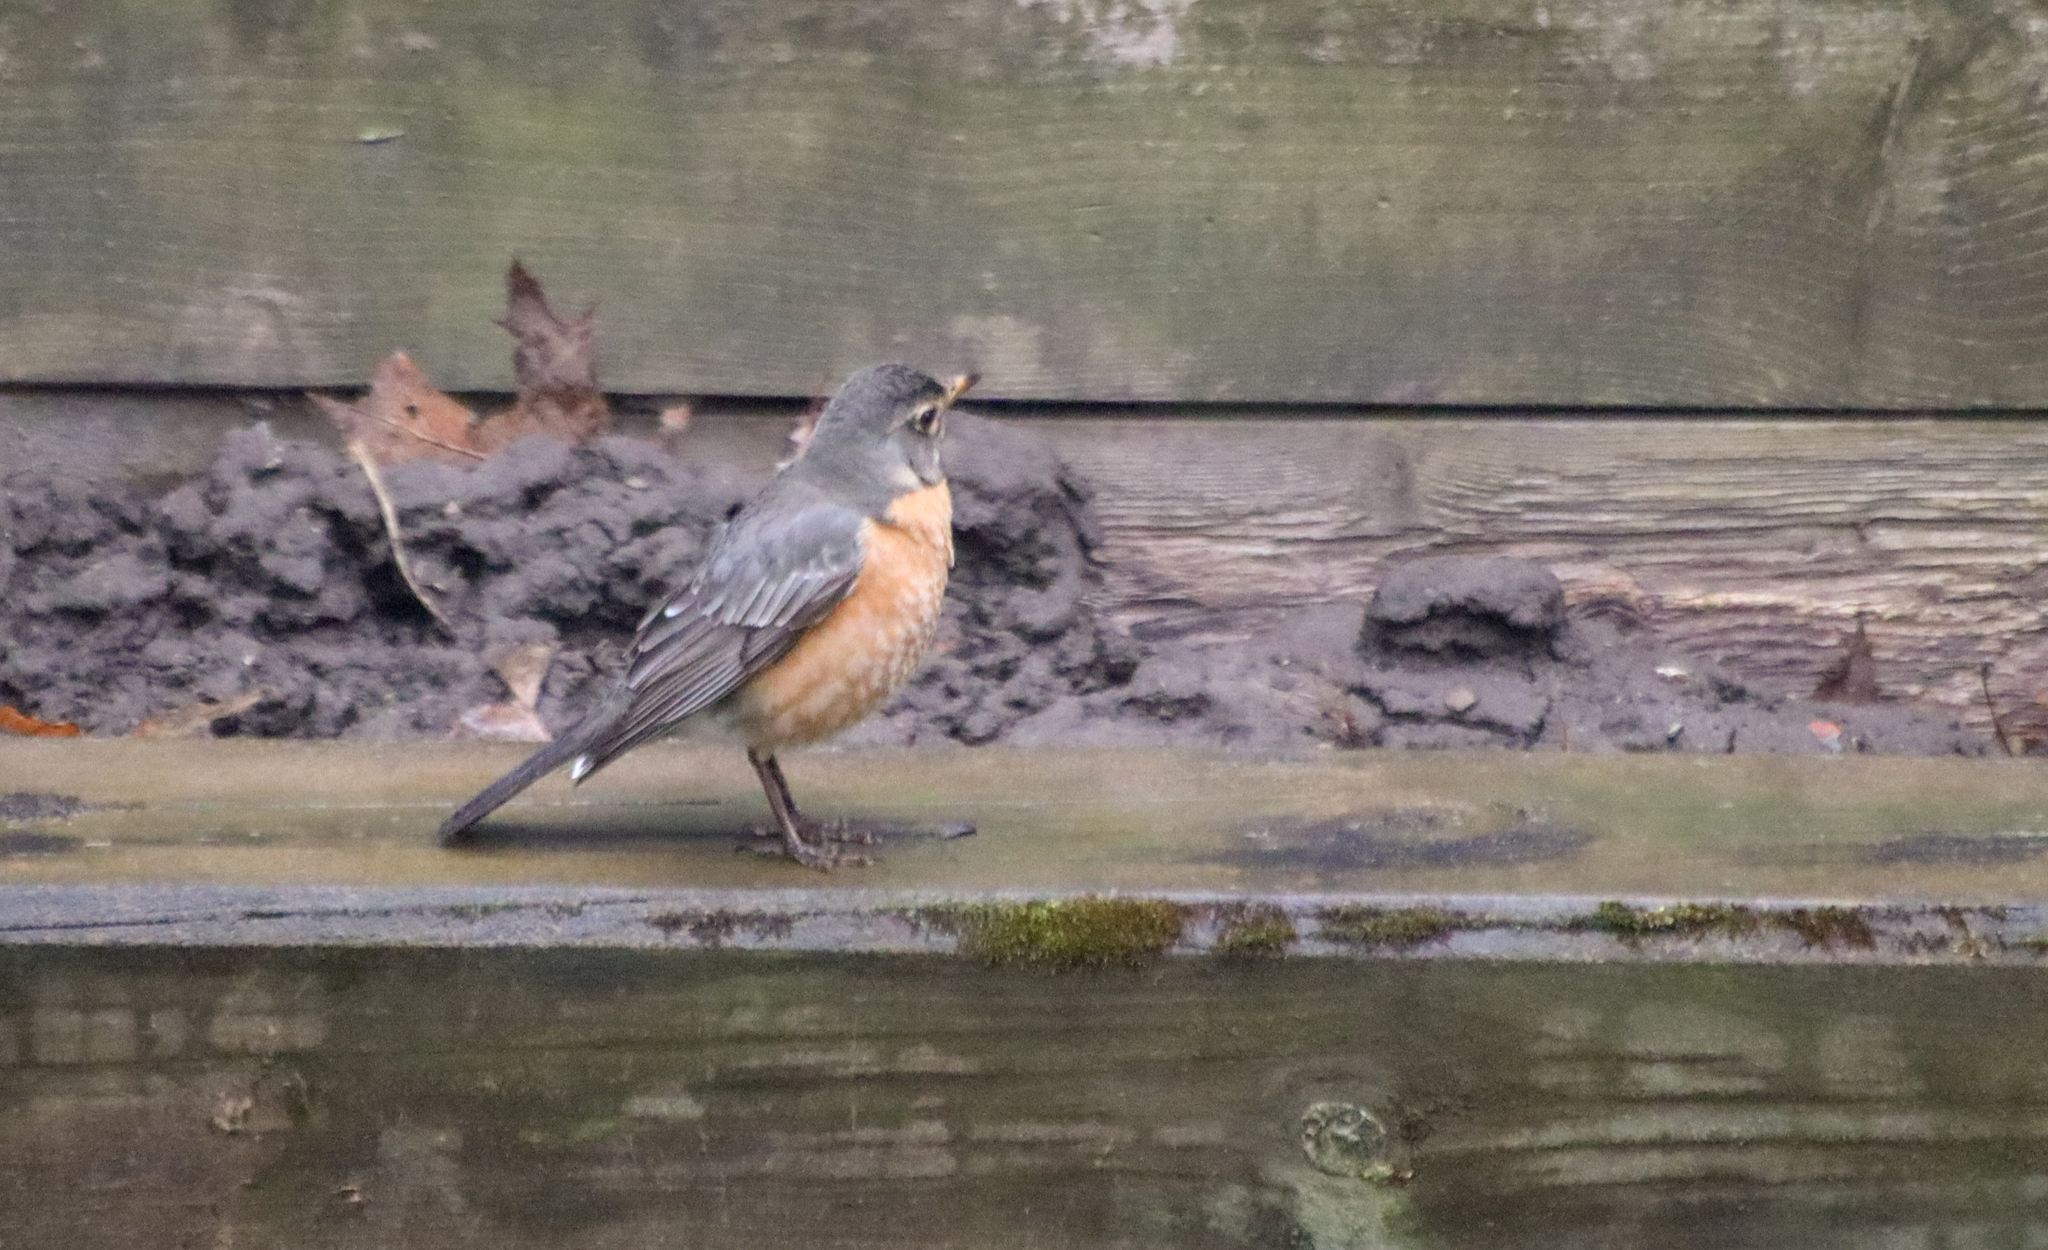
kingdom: Animalia
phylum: Chordata
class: Aves
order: Passeriformes
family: Turdidae
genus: Turdus
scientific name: Turdus migratorius
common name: American robin
